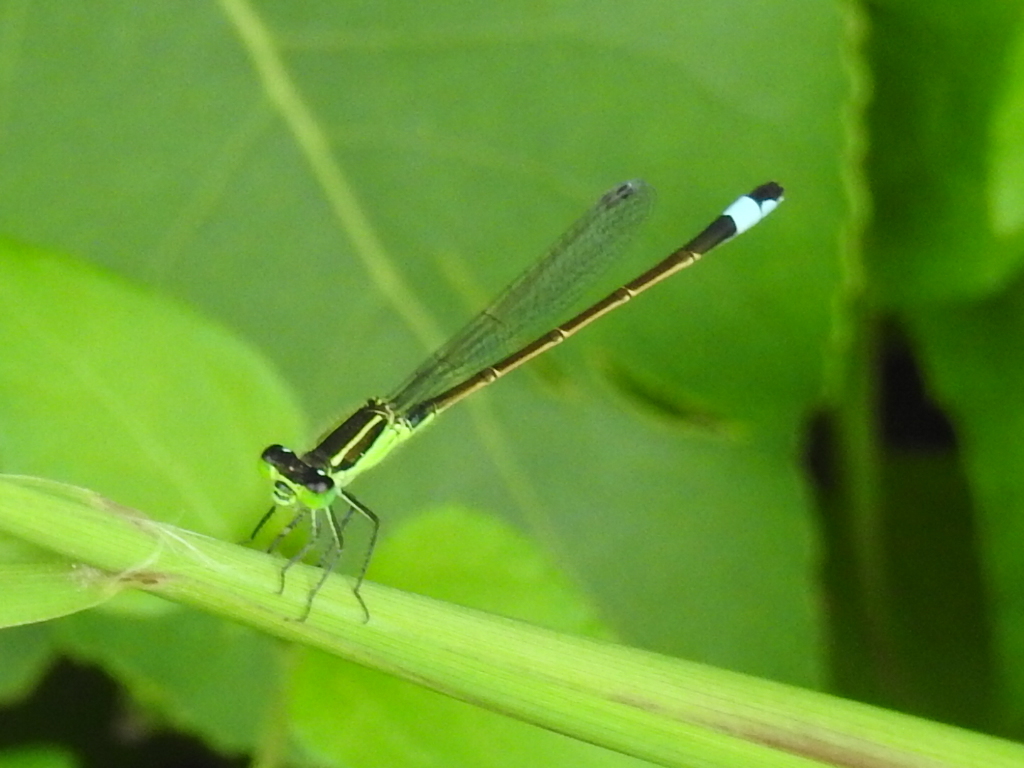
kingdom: Animalia
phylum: Arthropoda
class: Insecta
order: Odonata
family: Coenagrionidae
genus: Ischnura
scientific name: Ischnura ramburii
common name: Rambur's forktail
